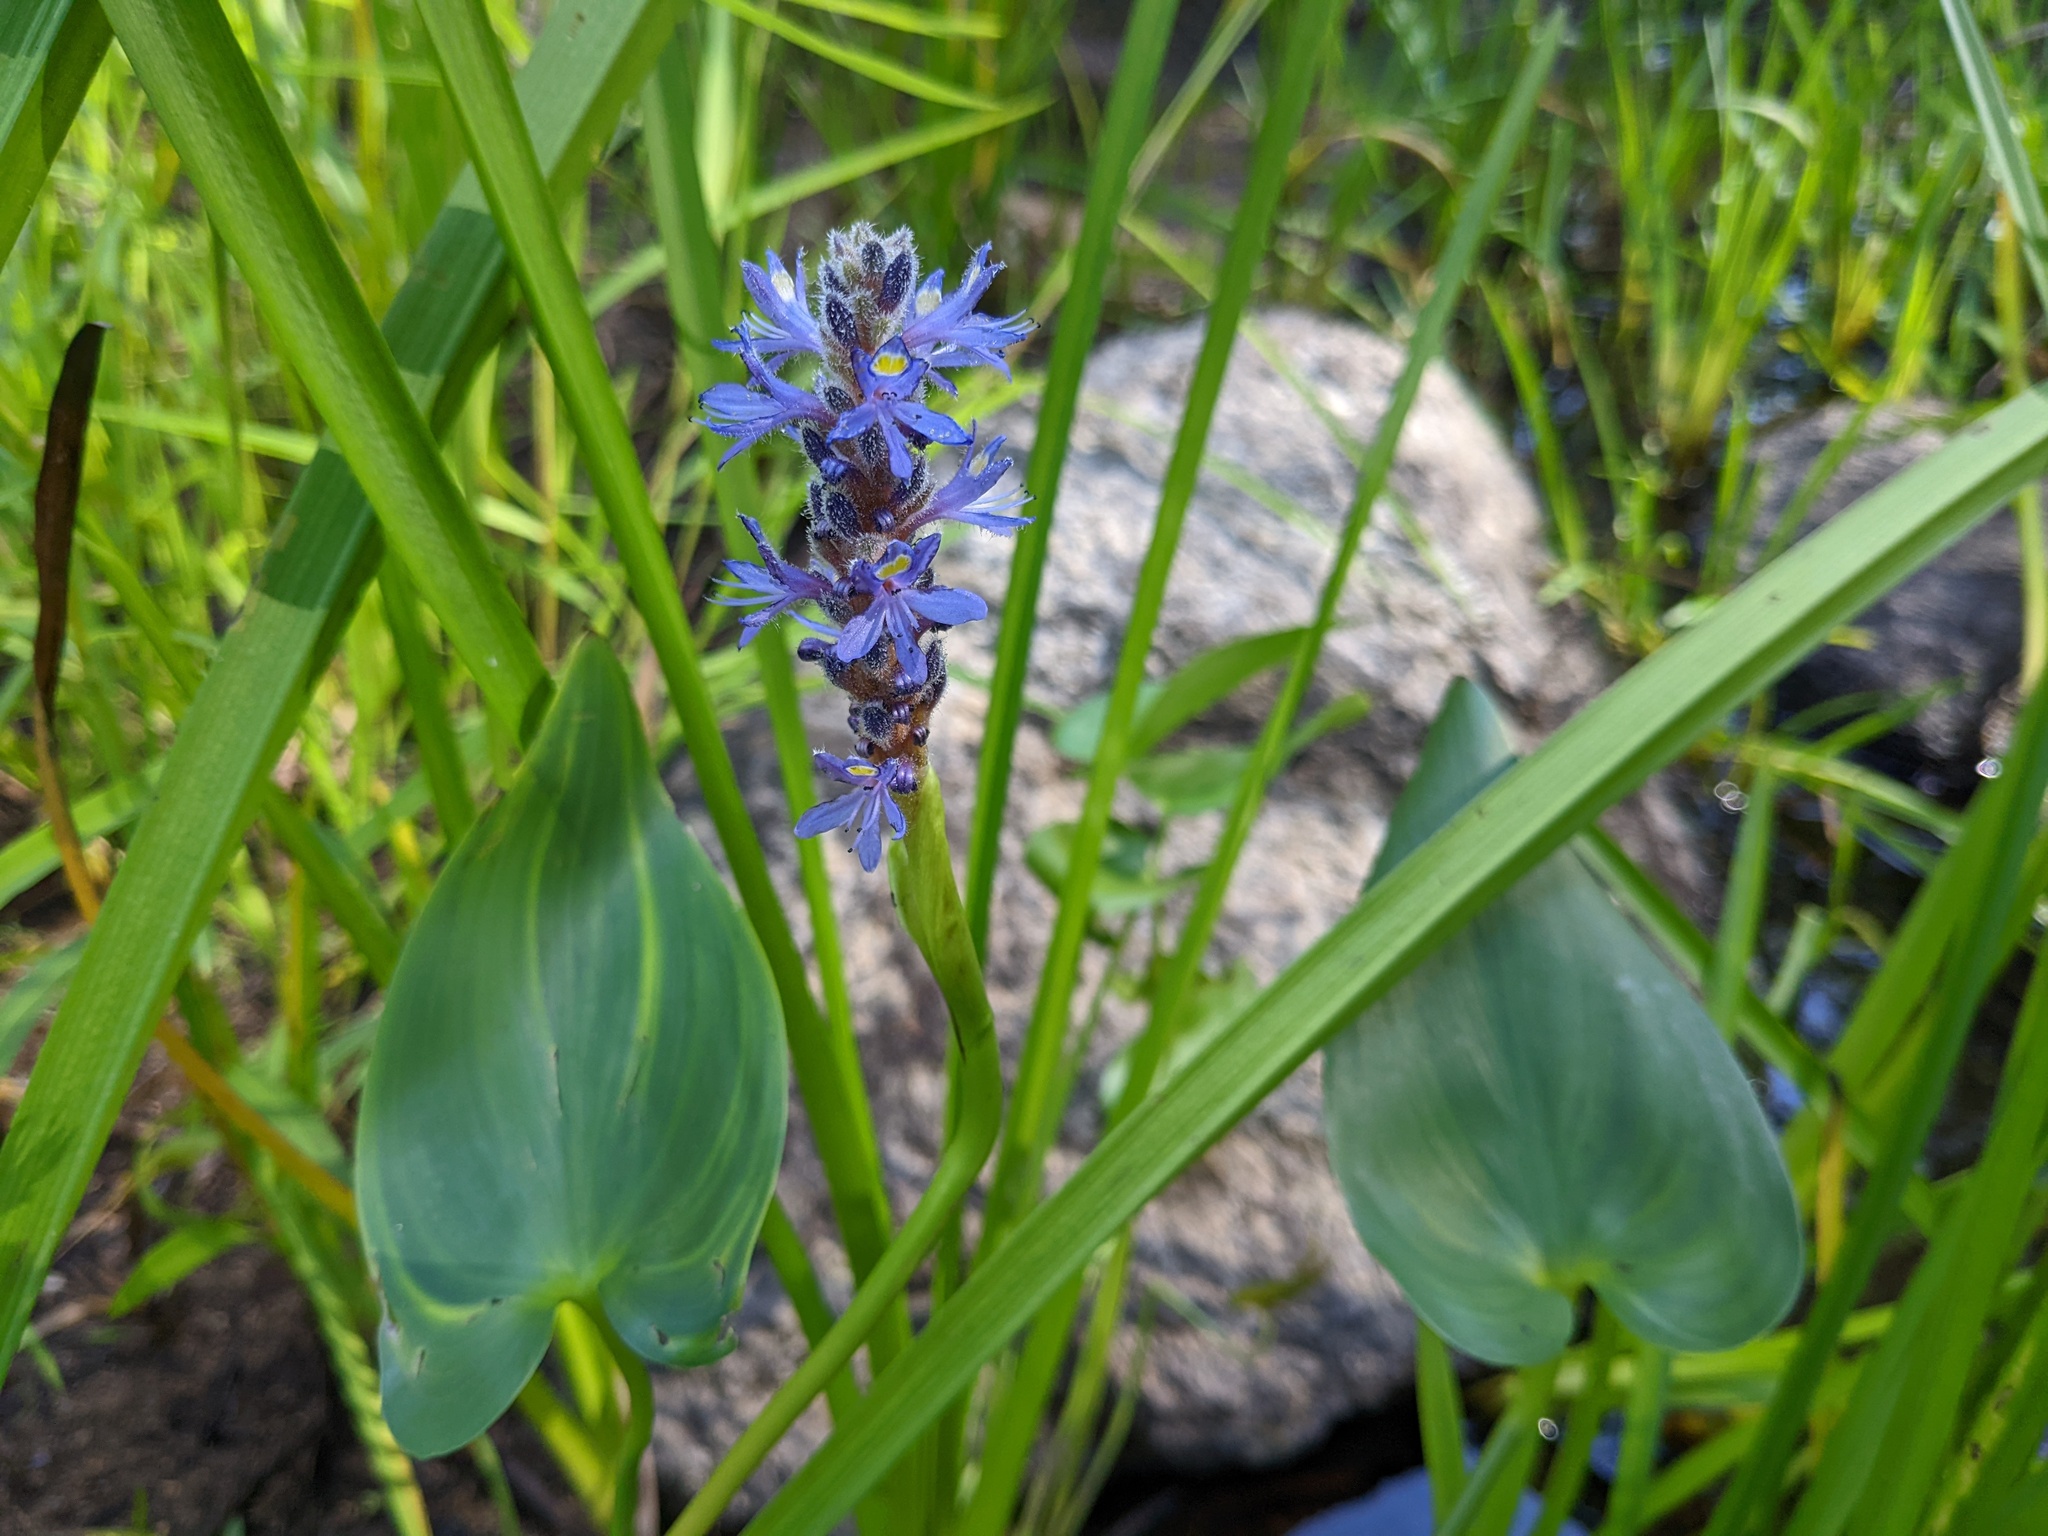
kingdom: Plantae
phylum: Tracheophyta
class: Liliopsida
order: Commelinales
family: Pontederiaceae
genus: Pontederia
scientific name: Pontederia cordata
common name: Pickerelweed
